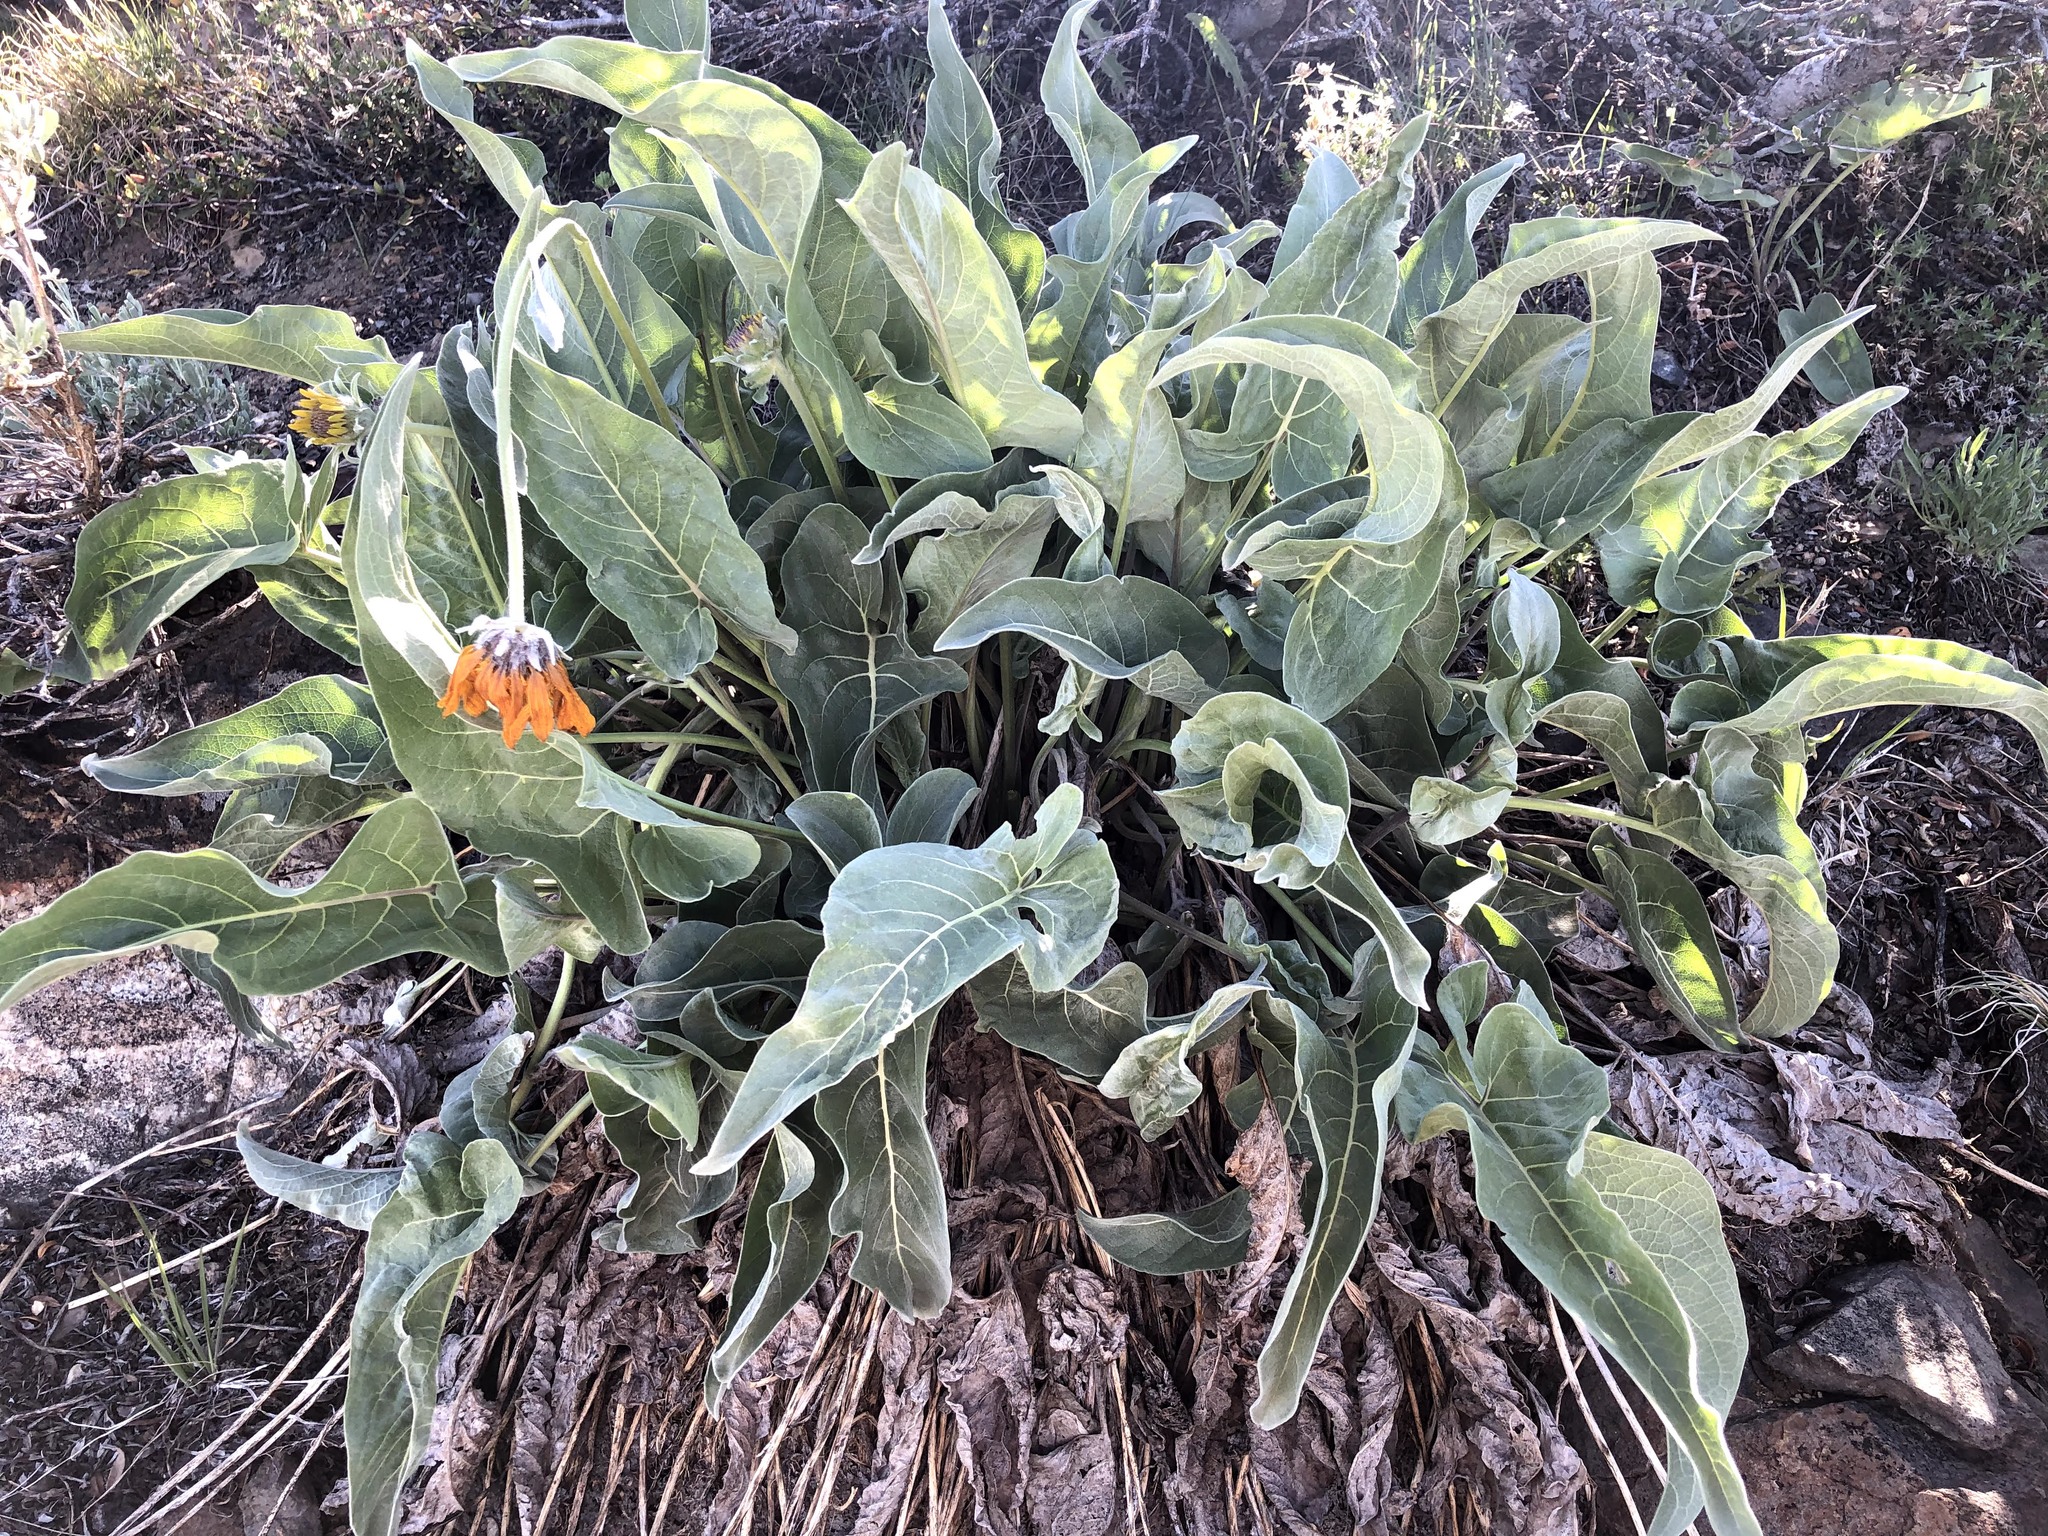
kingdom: Plantae
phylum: Tracheophyta
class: Magnoliopsida
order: Asterales
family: Asteraceae
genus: Wyethia
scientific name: Wyethia sagittata
